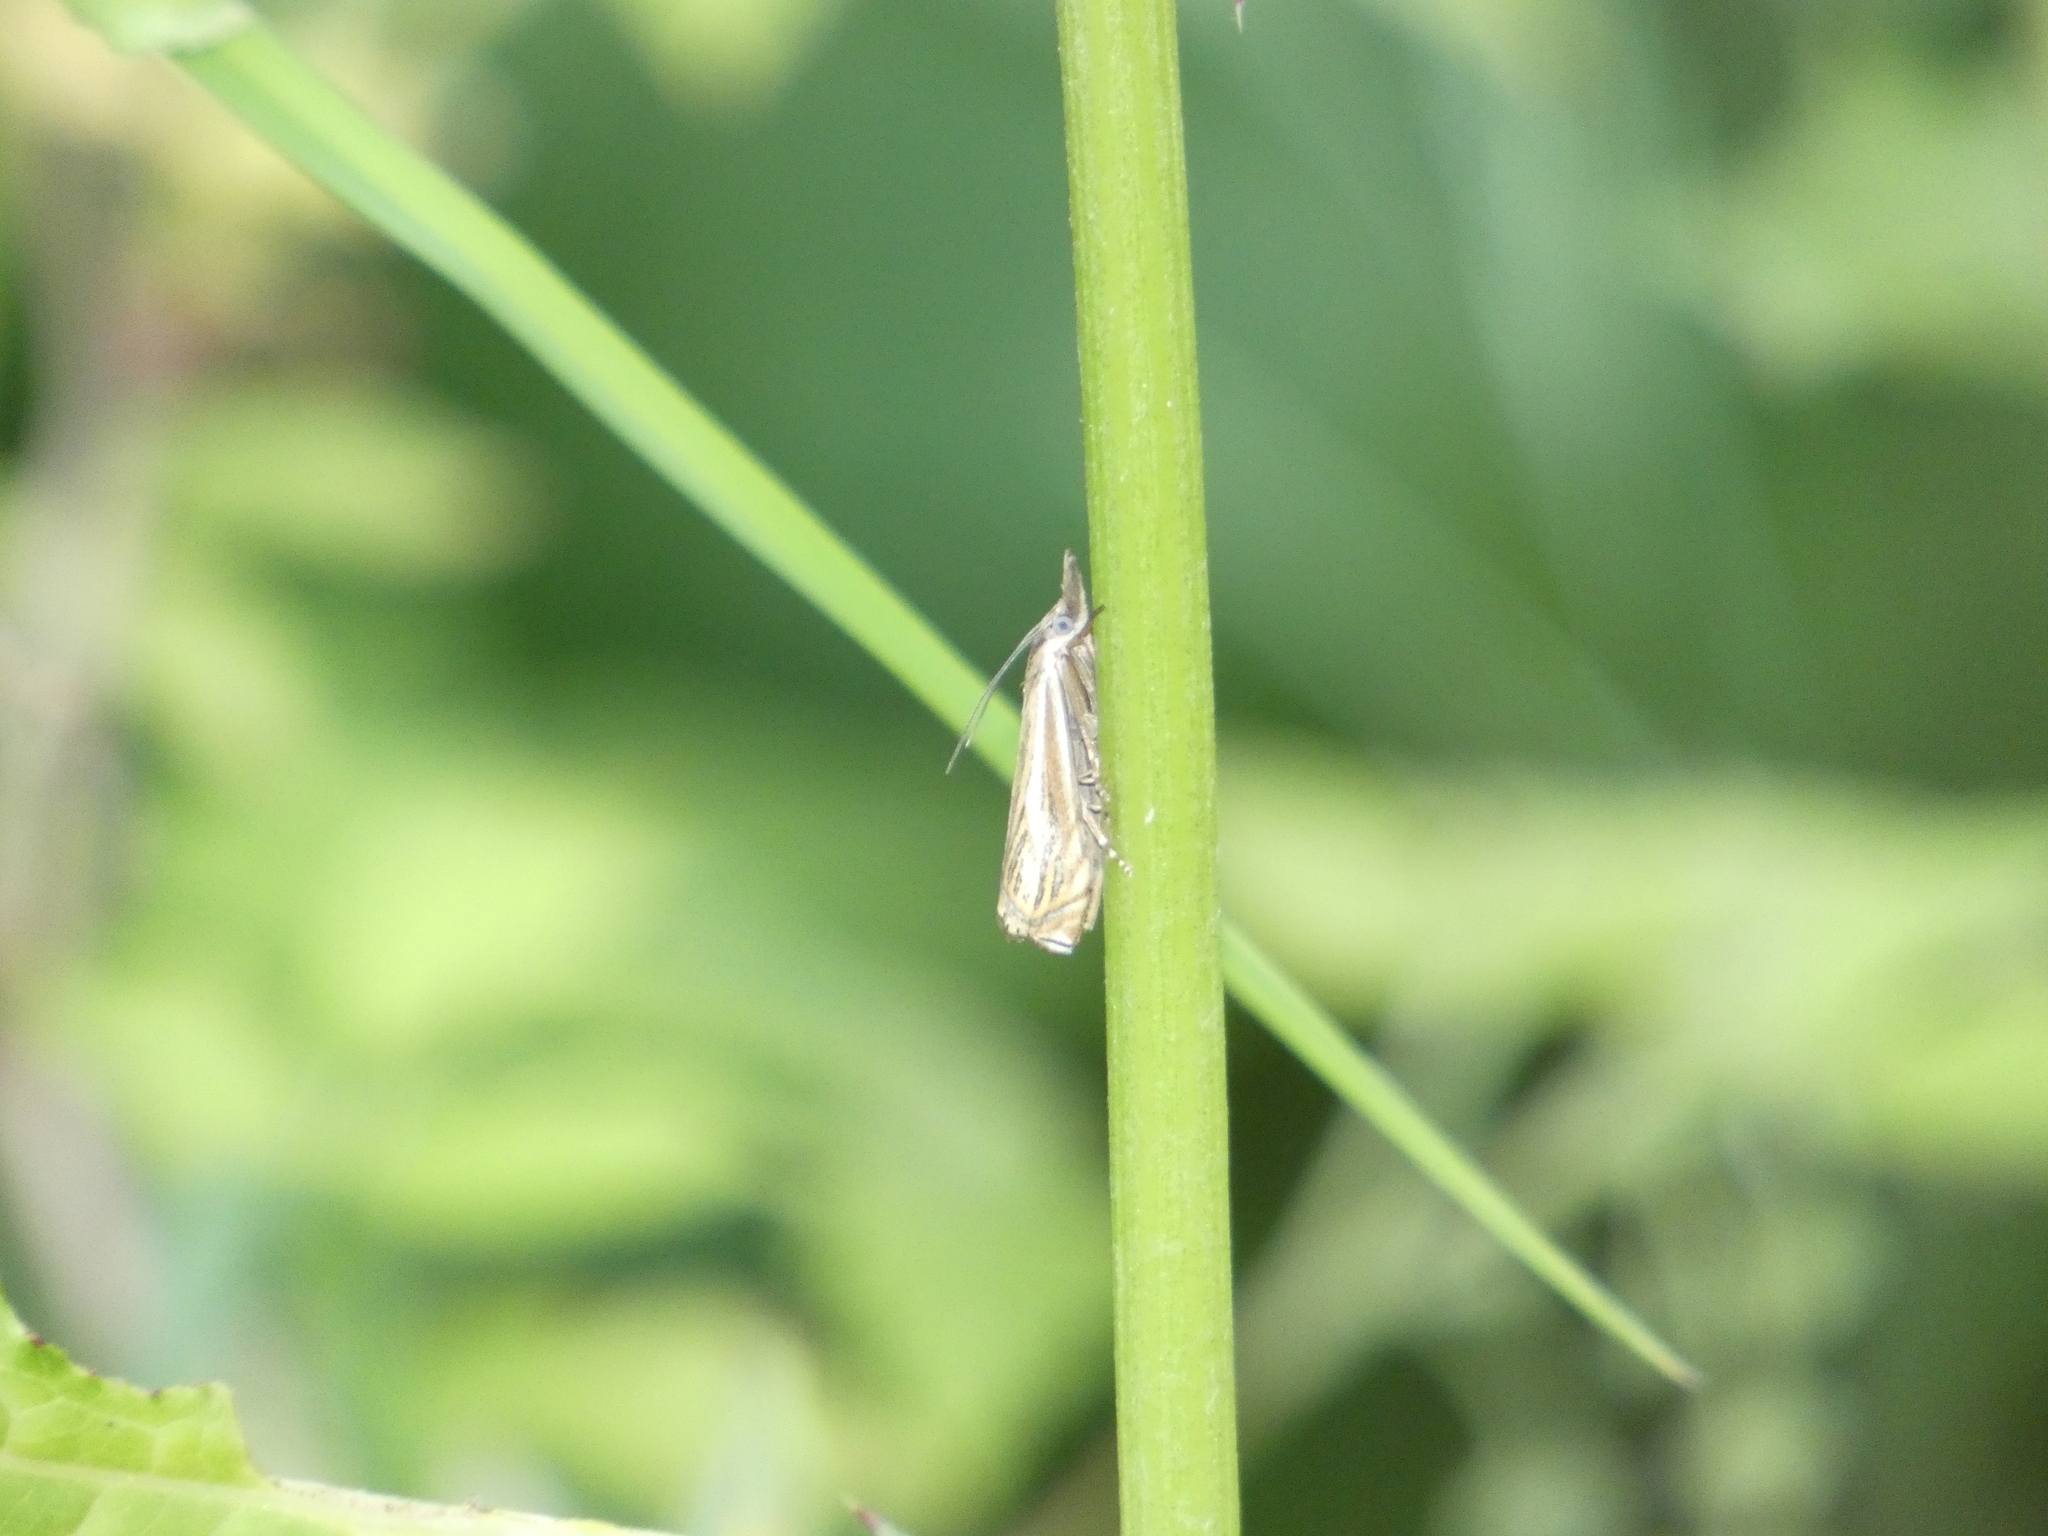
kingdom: Animalia
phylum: Arthropoda
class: Insecta
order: Lepidoptera
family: Crambidae
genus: Crambus
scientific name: Crambus nemorella
